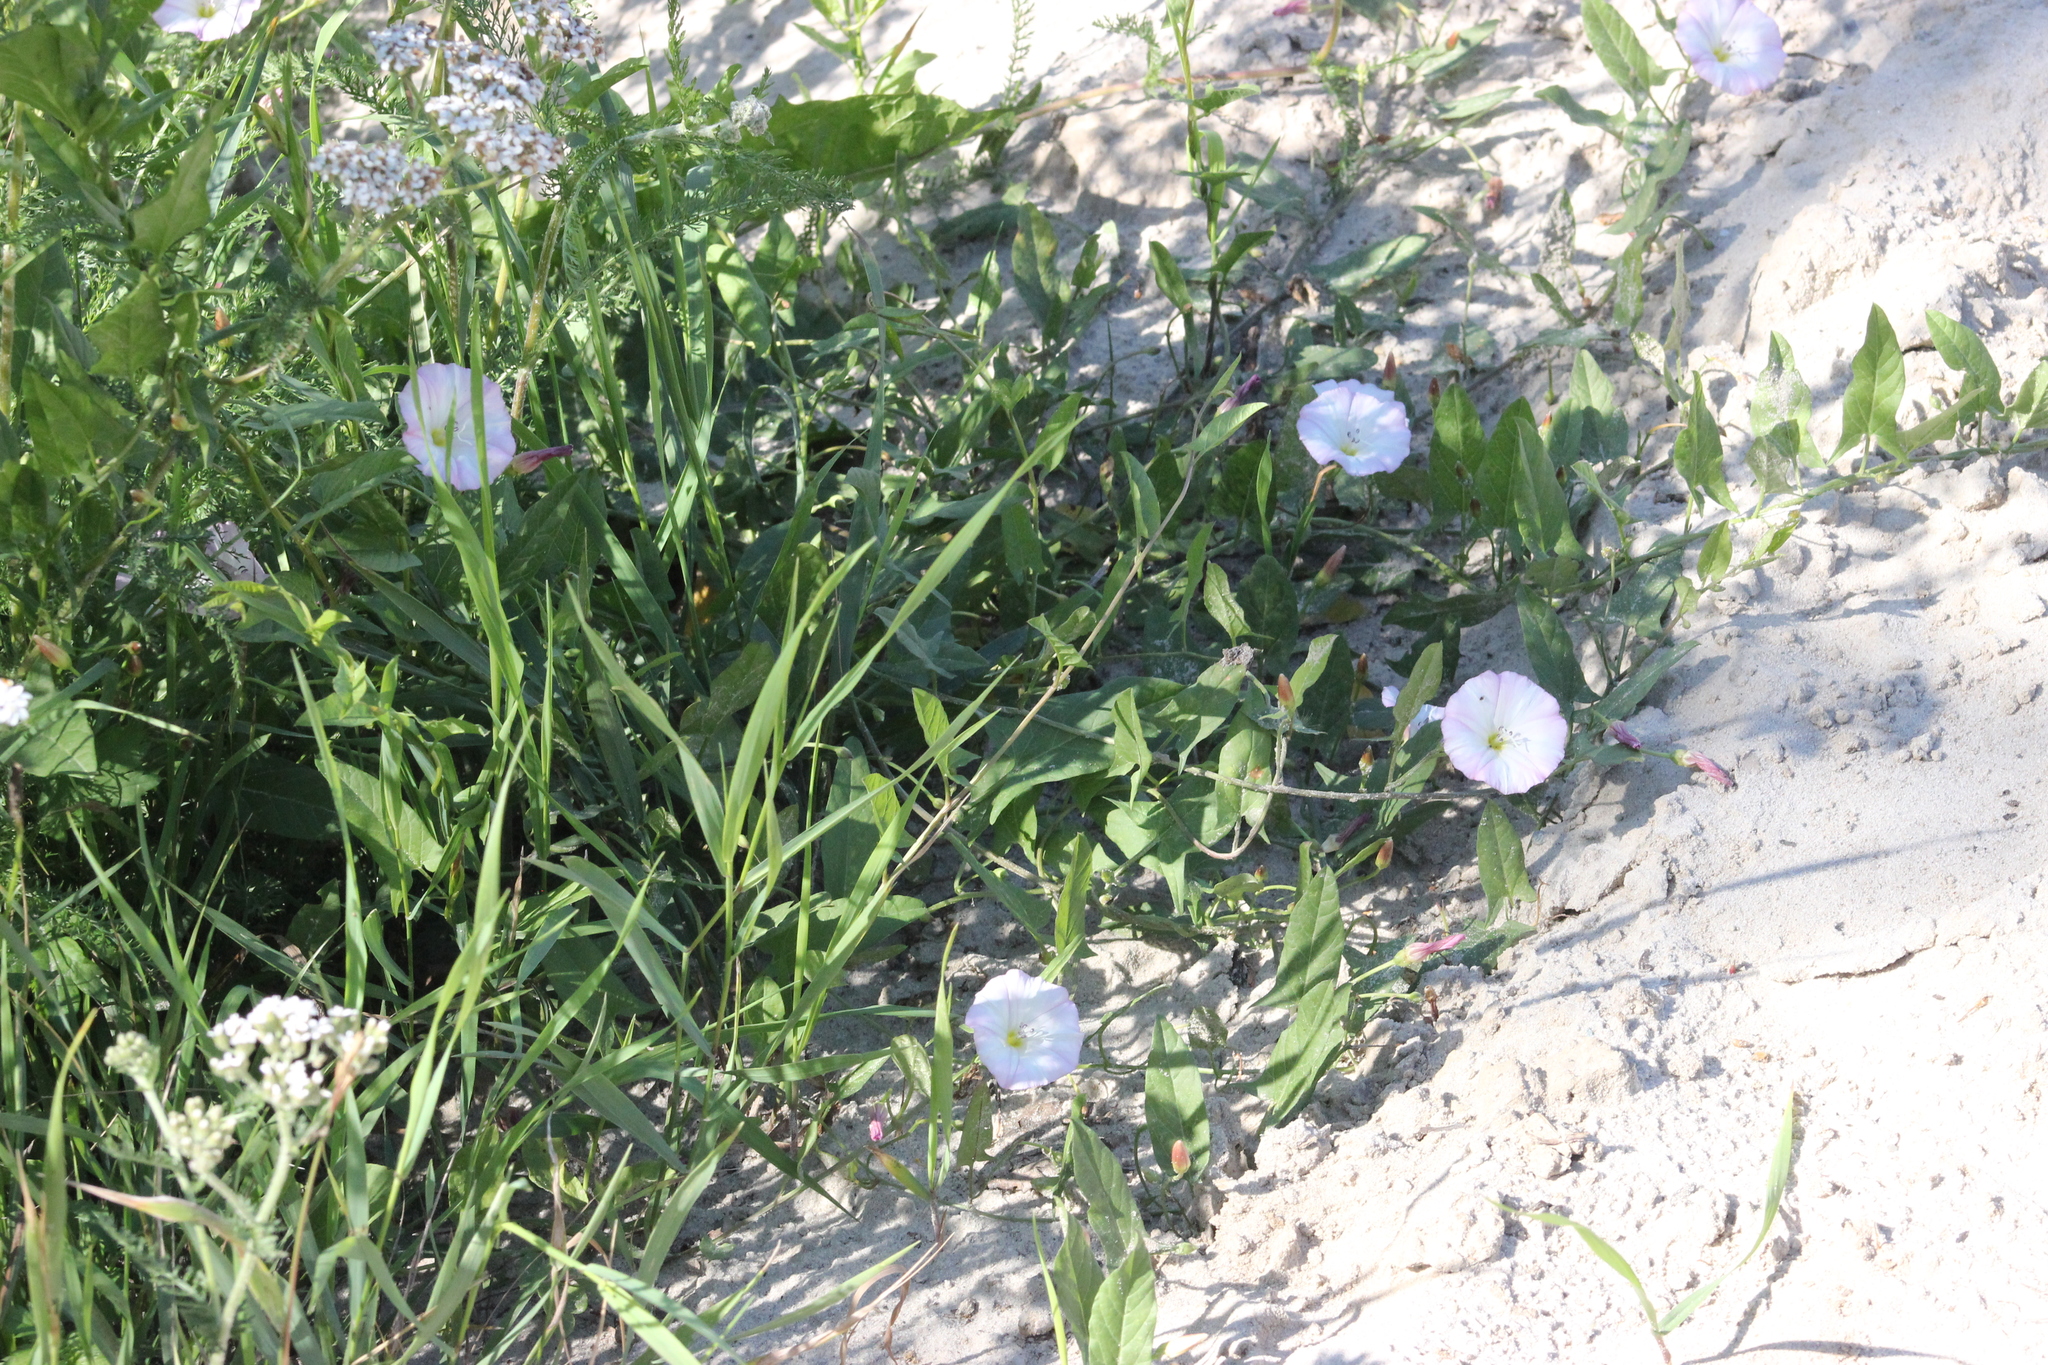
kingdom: Plantae
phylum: Tracheophyta
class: Magnoliopsida
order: Solanales
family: Convolvulaceae
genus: Convolvulus
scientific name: Convolvulus arvensis
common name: Field bindweed
